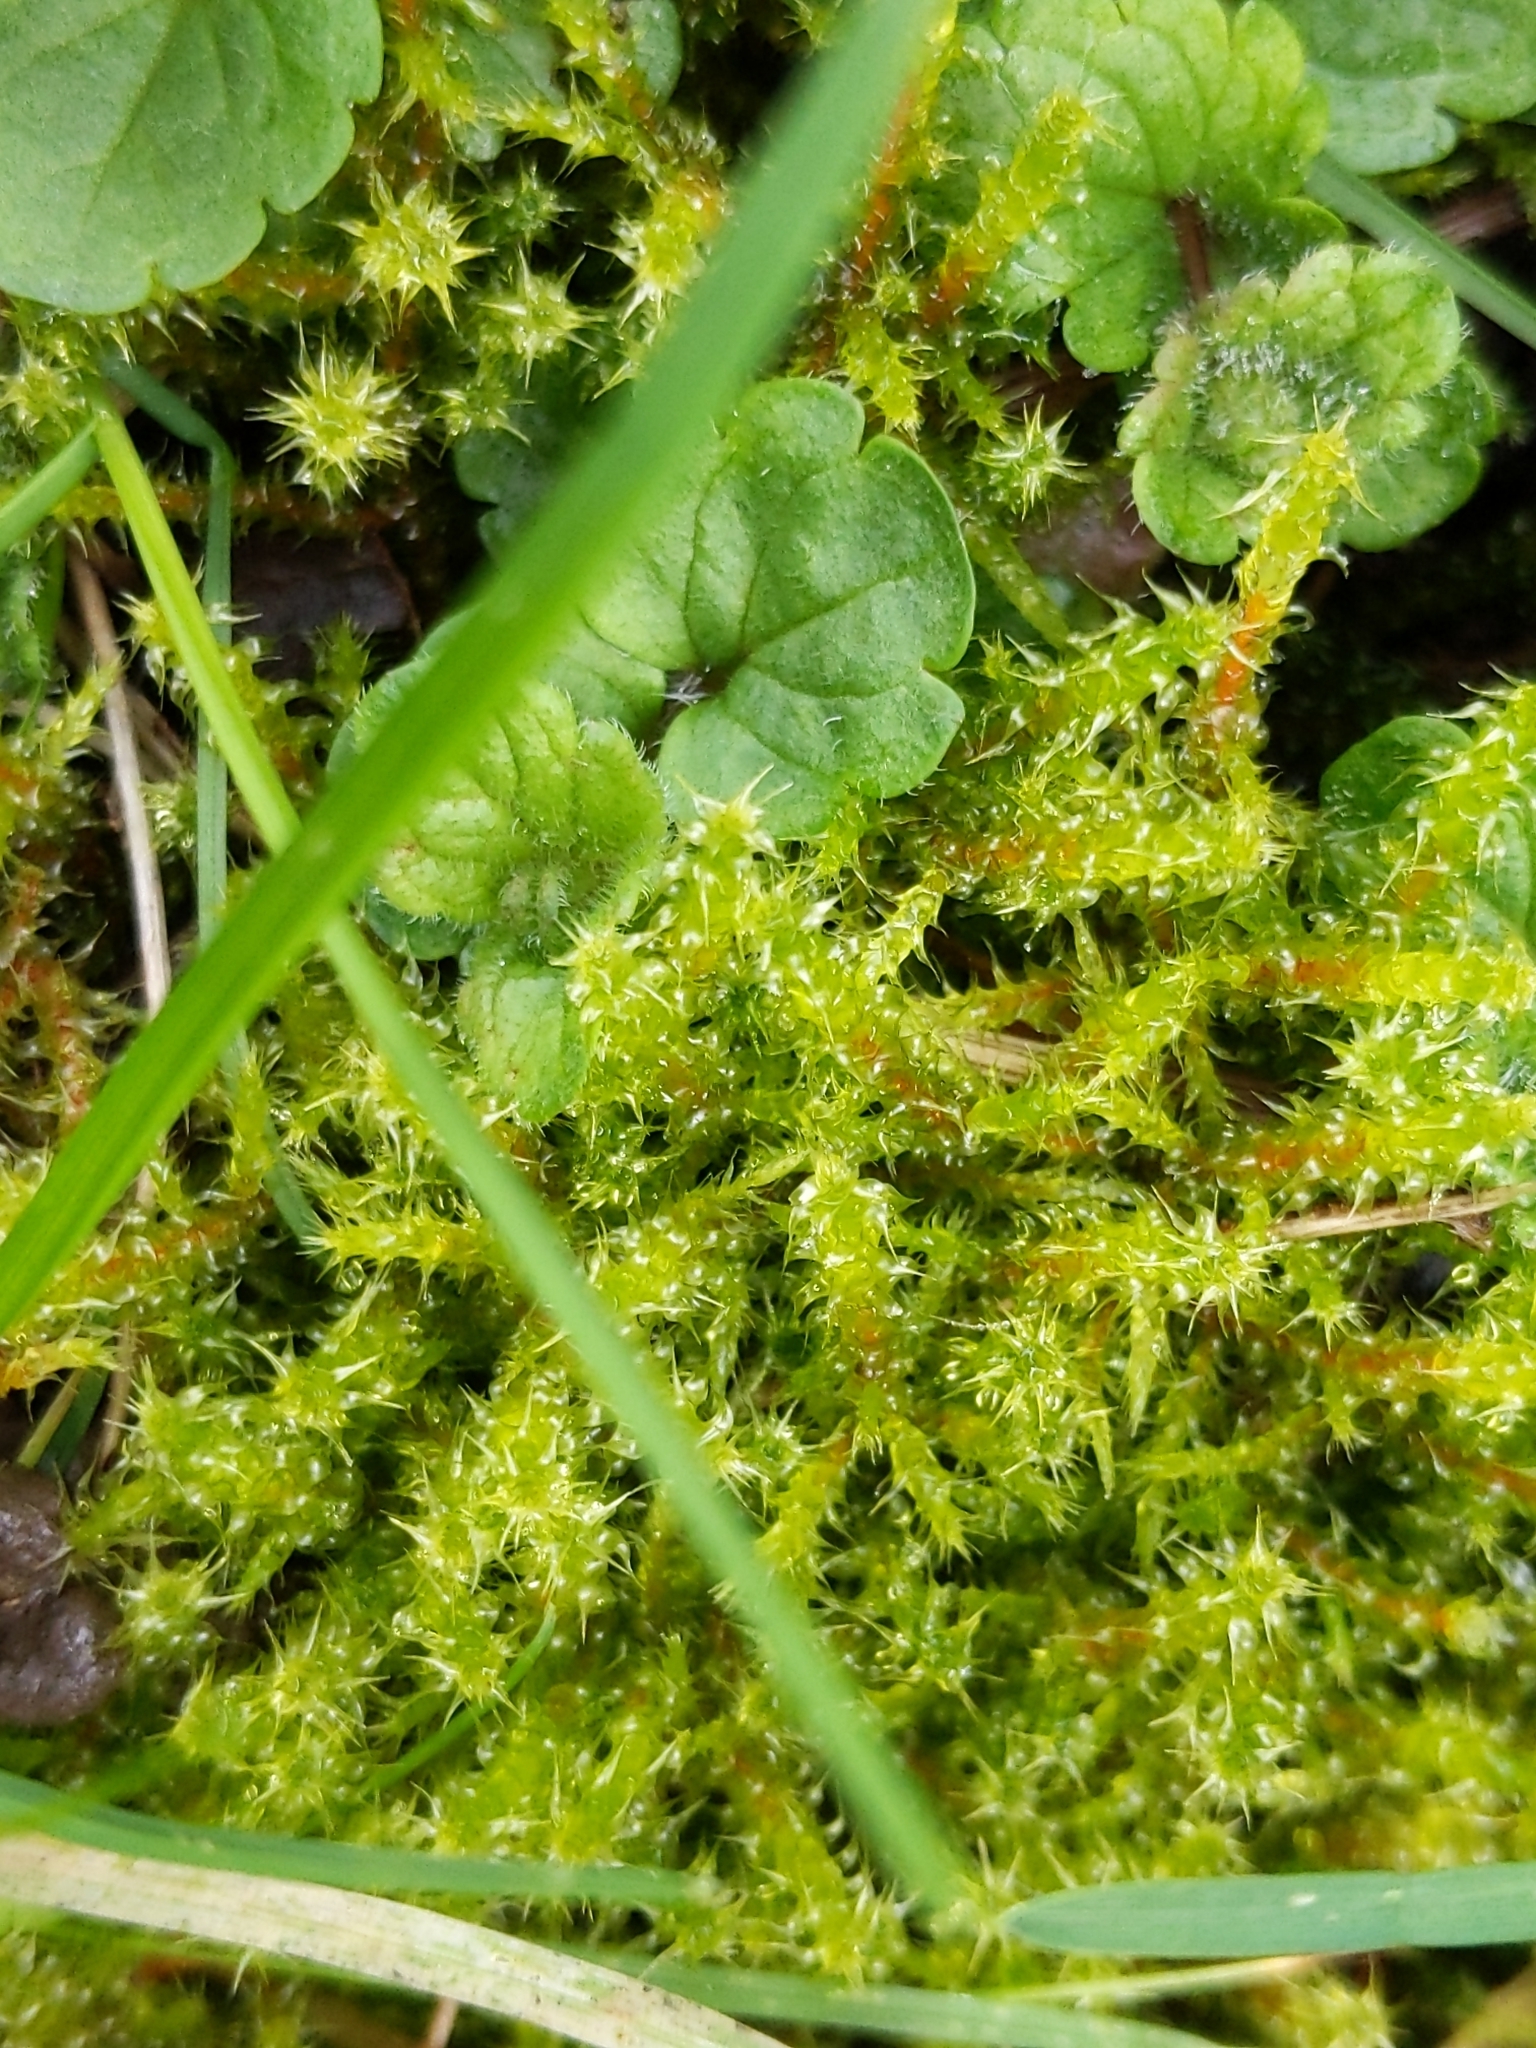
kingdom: Plantae
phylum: Bryophyta
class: Bryopsida
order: Hypnales
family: Hylocomiaceae
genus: Rhytidiadelphus
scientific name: Rhytidiadelphus squarrosus
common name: Springy turf-moss
